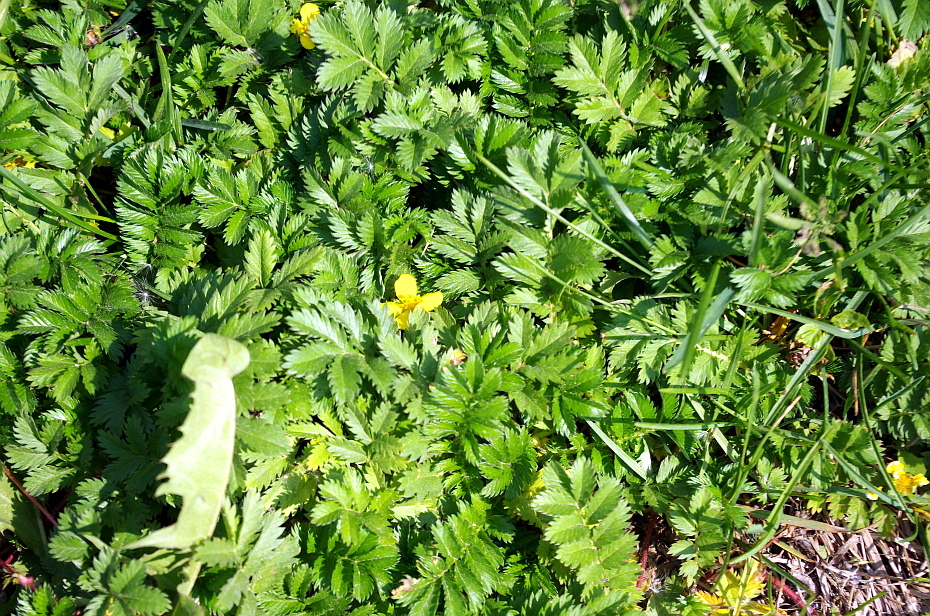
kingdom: Plantae
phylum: Tracheophyta
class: Magnoliopsida
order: Rosales
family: Rosaceae
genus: Argentina
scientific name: Argentina anserina
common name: Common silverweed
